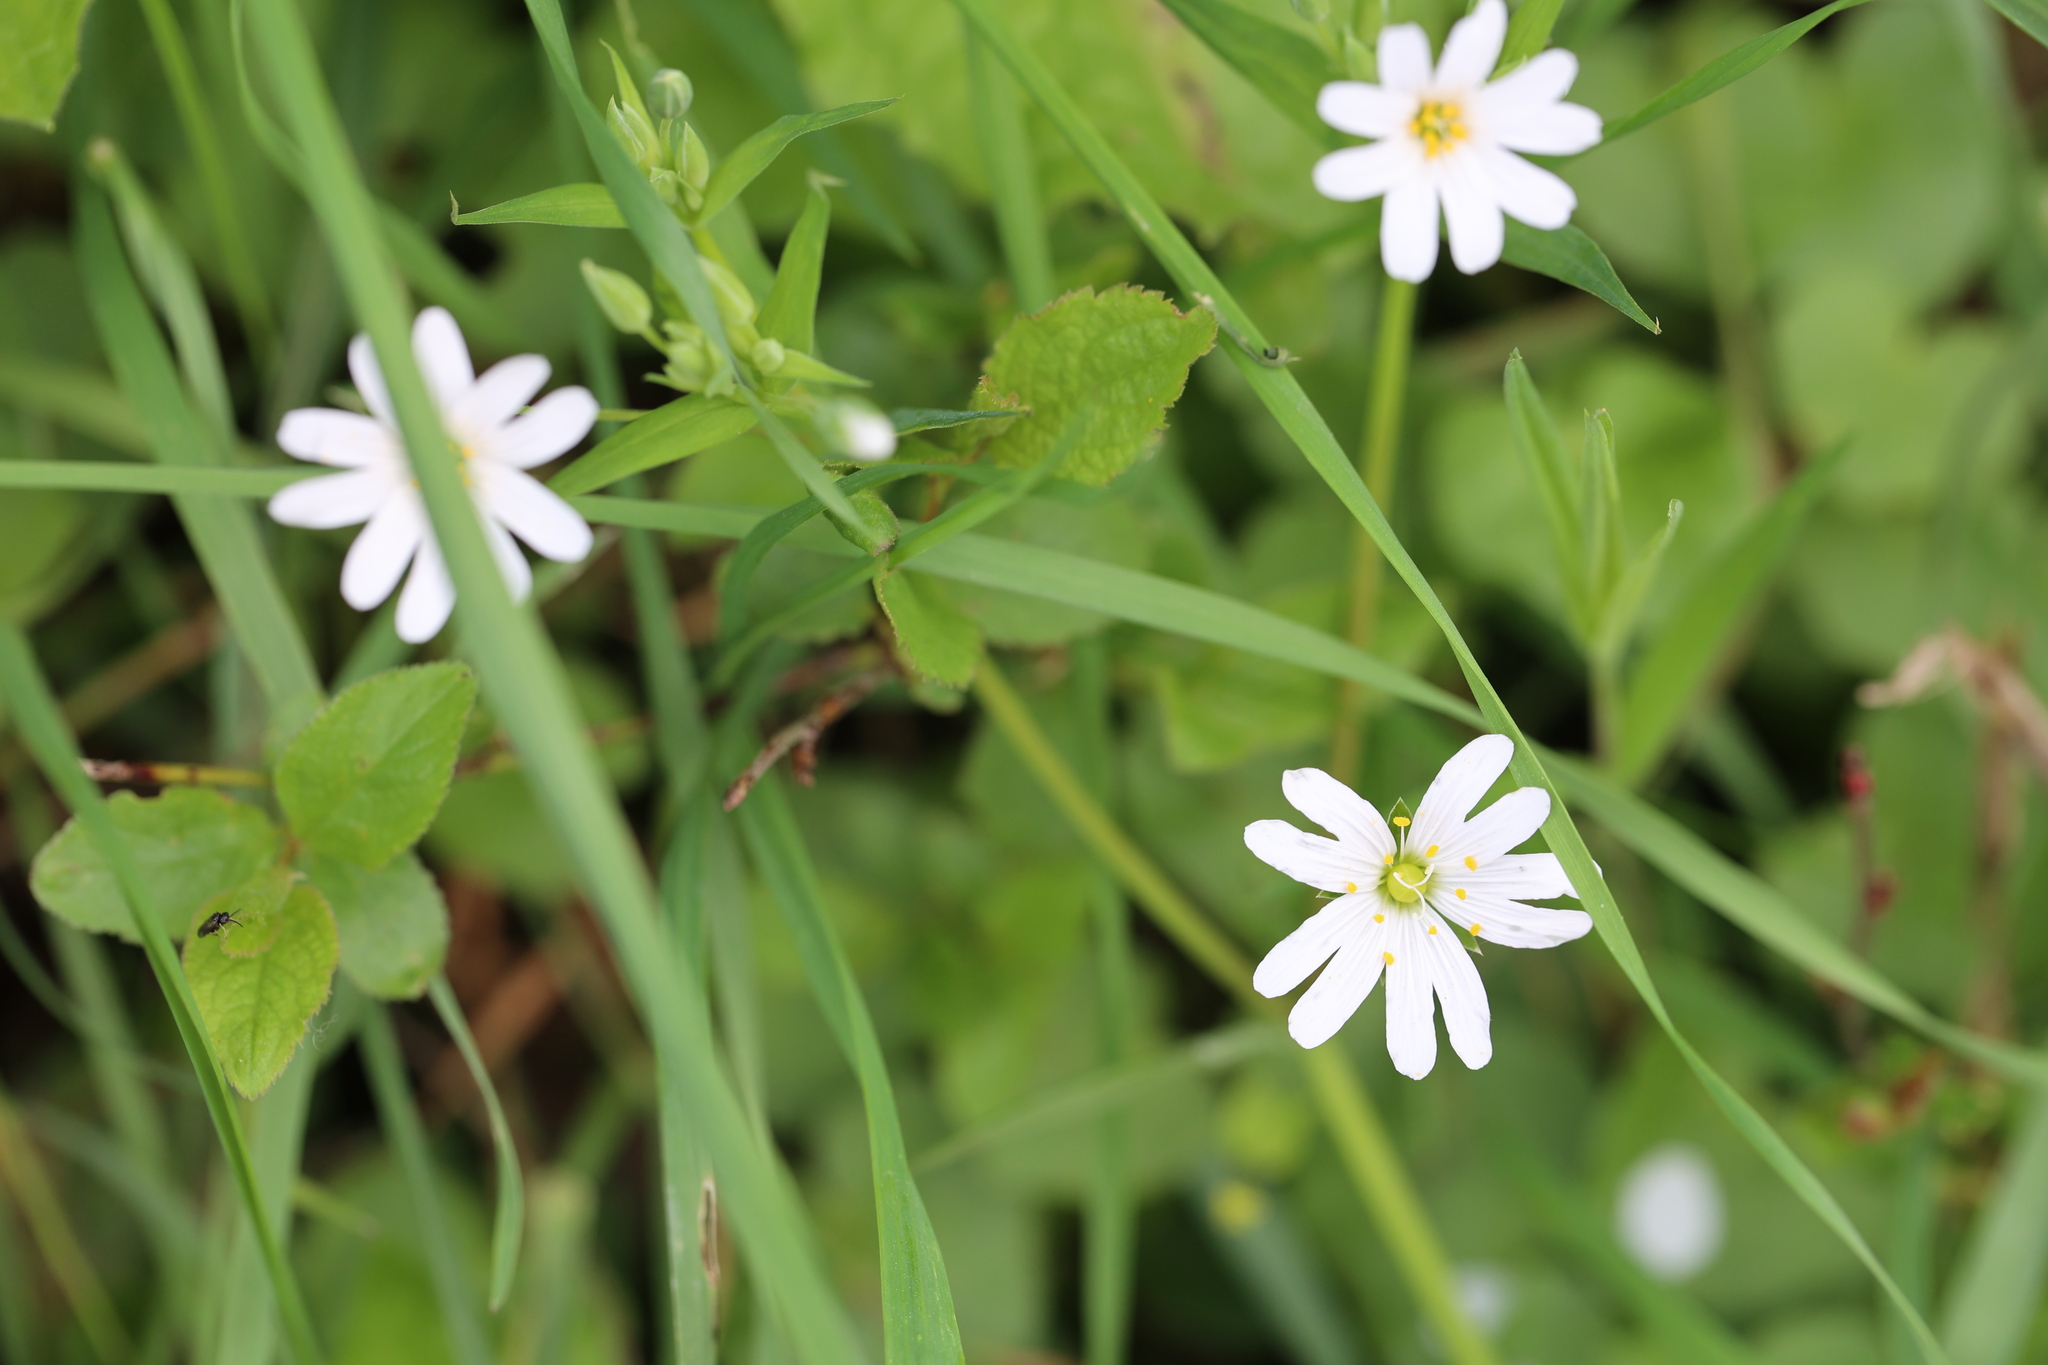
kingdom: Plantae
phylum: Tracheophyta
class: Magnoliopsida
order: Caryophyllales
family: Caryophyllaceae
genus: Rabelera
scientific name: Rabelera holostea
